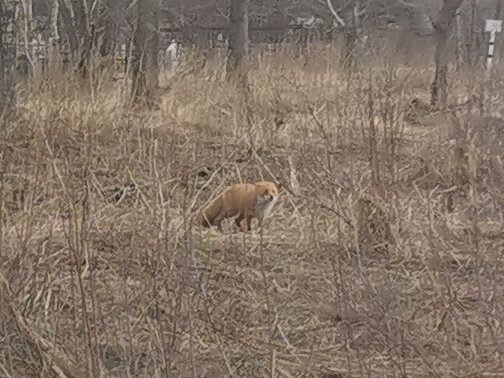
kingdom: Animalia
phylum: Chordata
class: Mammalia
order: Carnivora
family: Canidae
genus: Vulpes
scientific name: Vulpes vulpes
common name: Red fox
